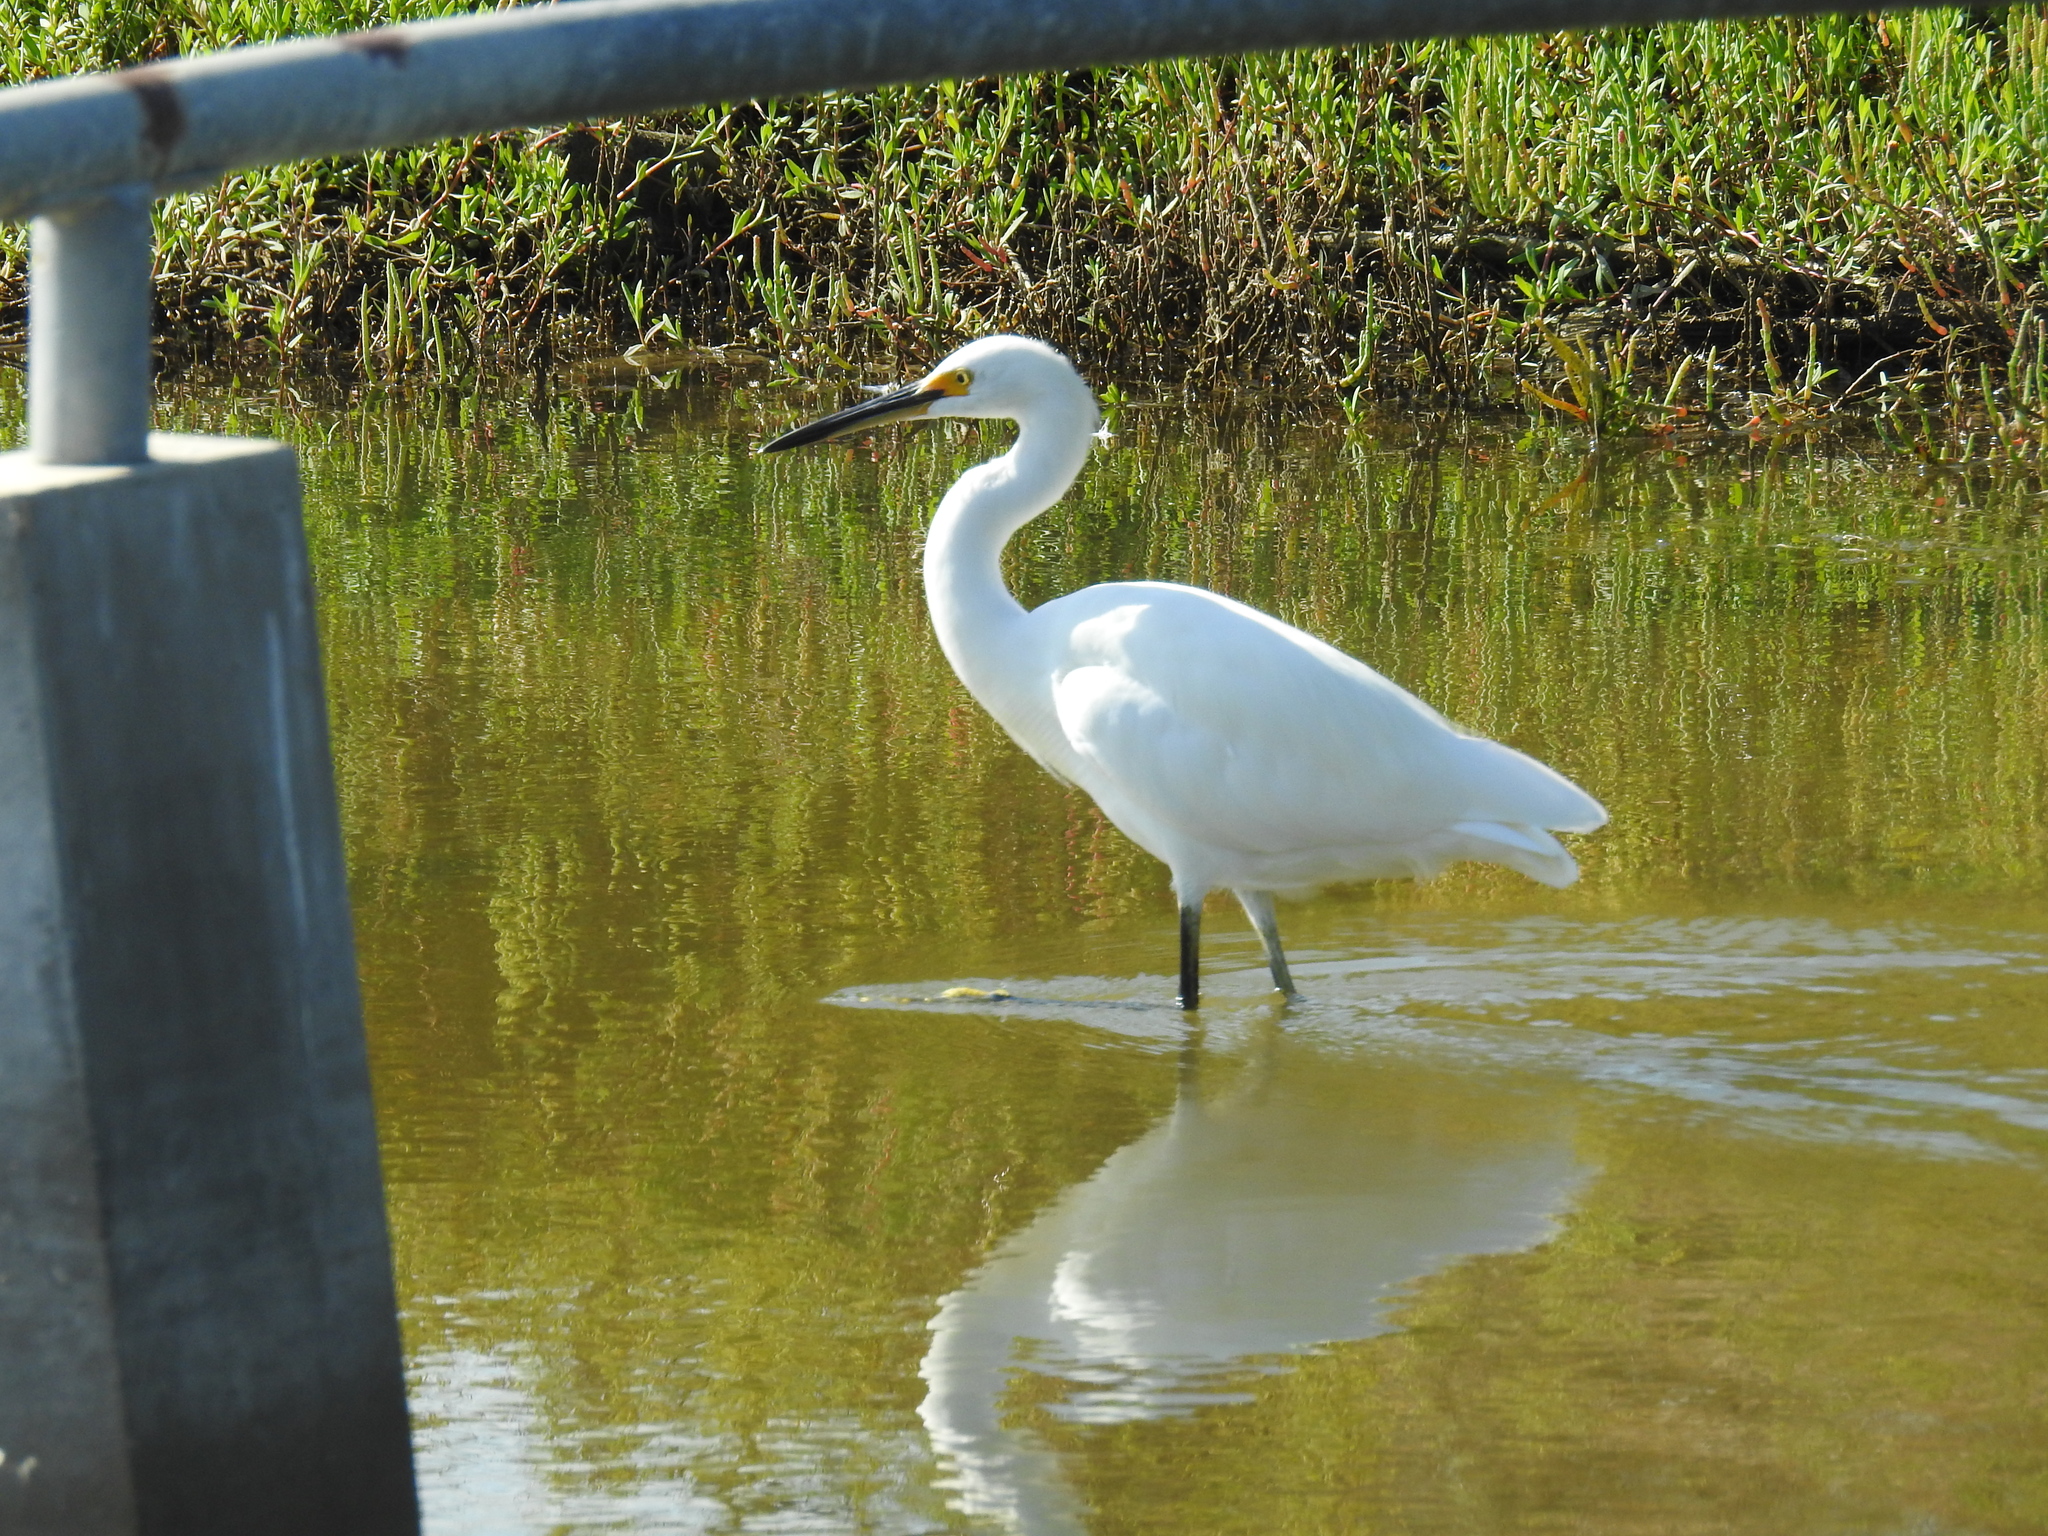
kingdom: Animalia
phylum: Chordata
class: Aves
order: Pelecaniformes
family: Ardeidae
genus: Egretta
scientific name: Egretta thula
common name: Snowy egret
